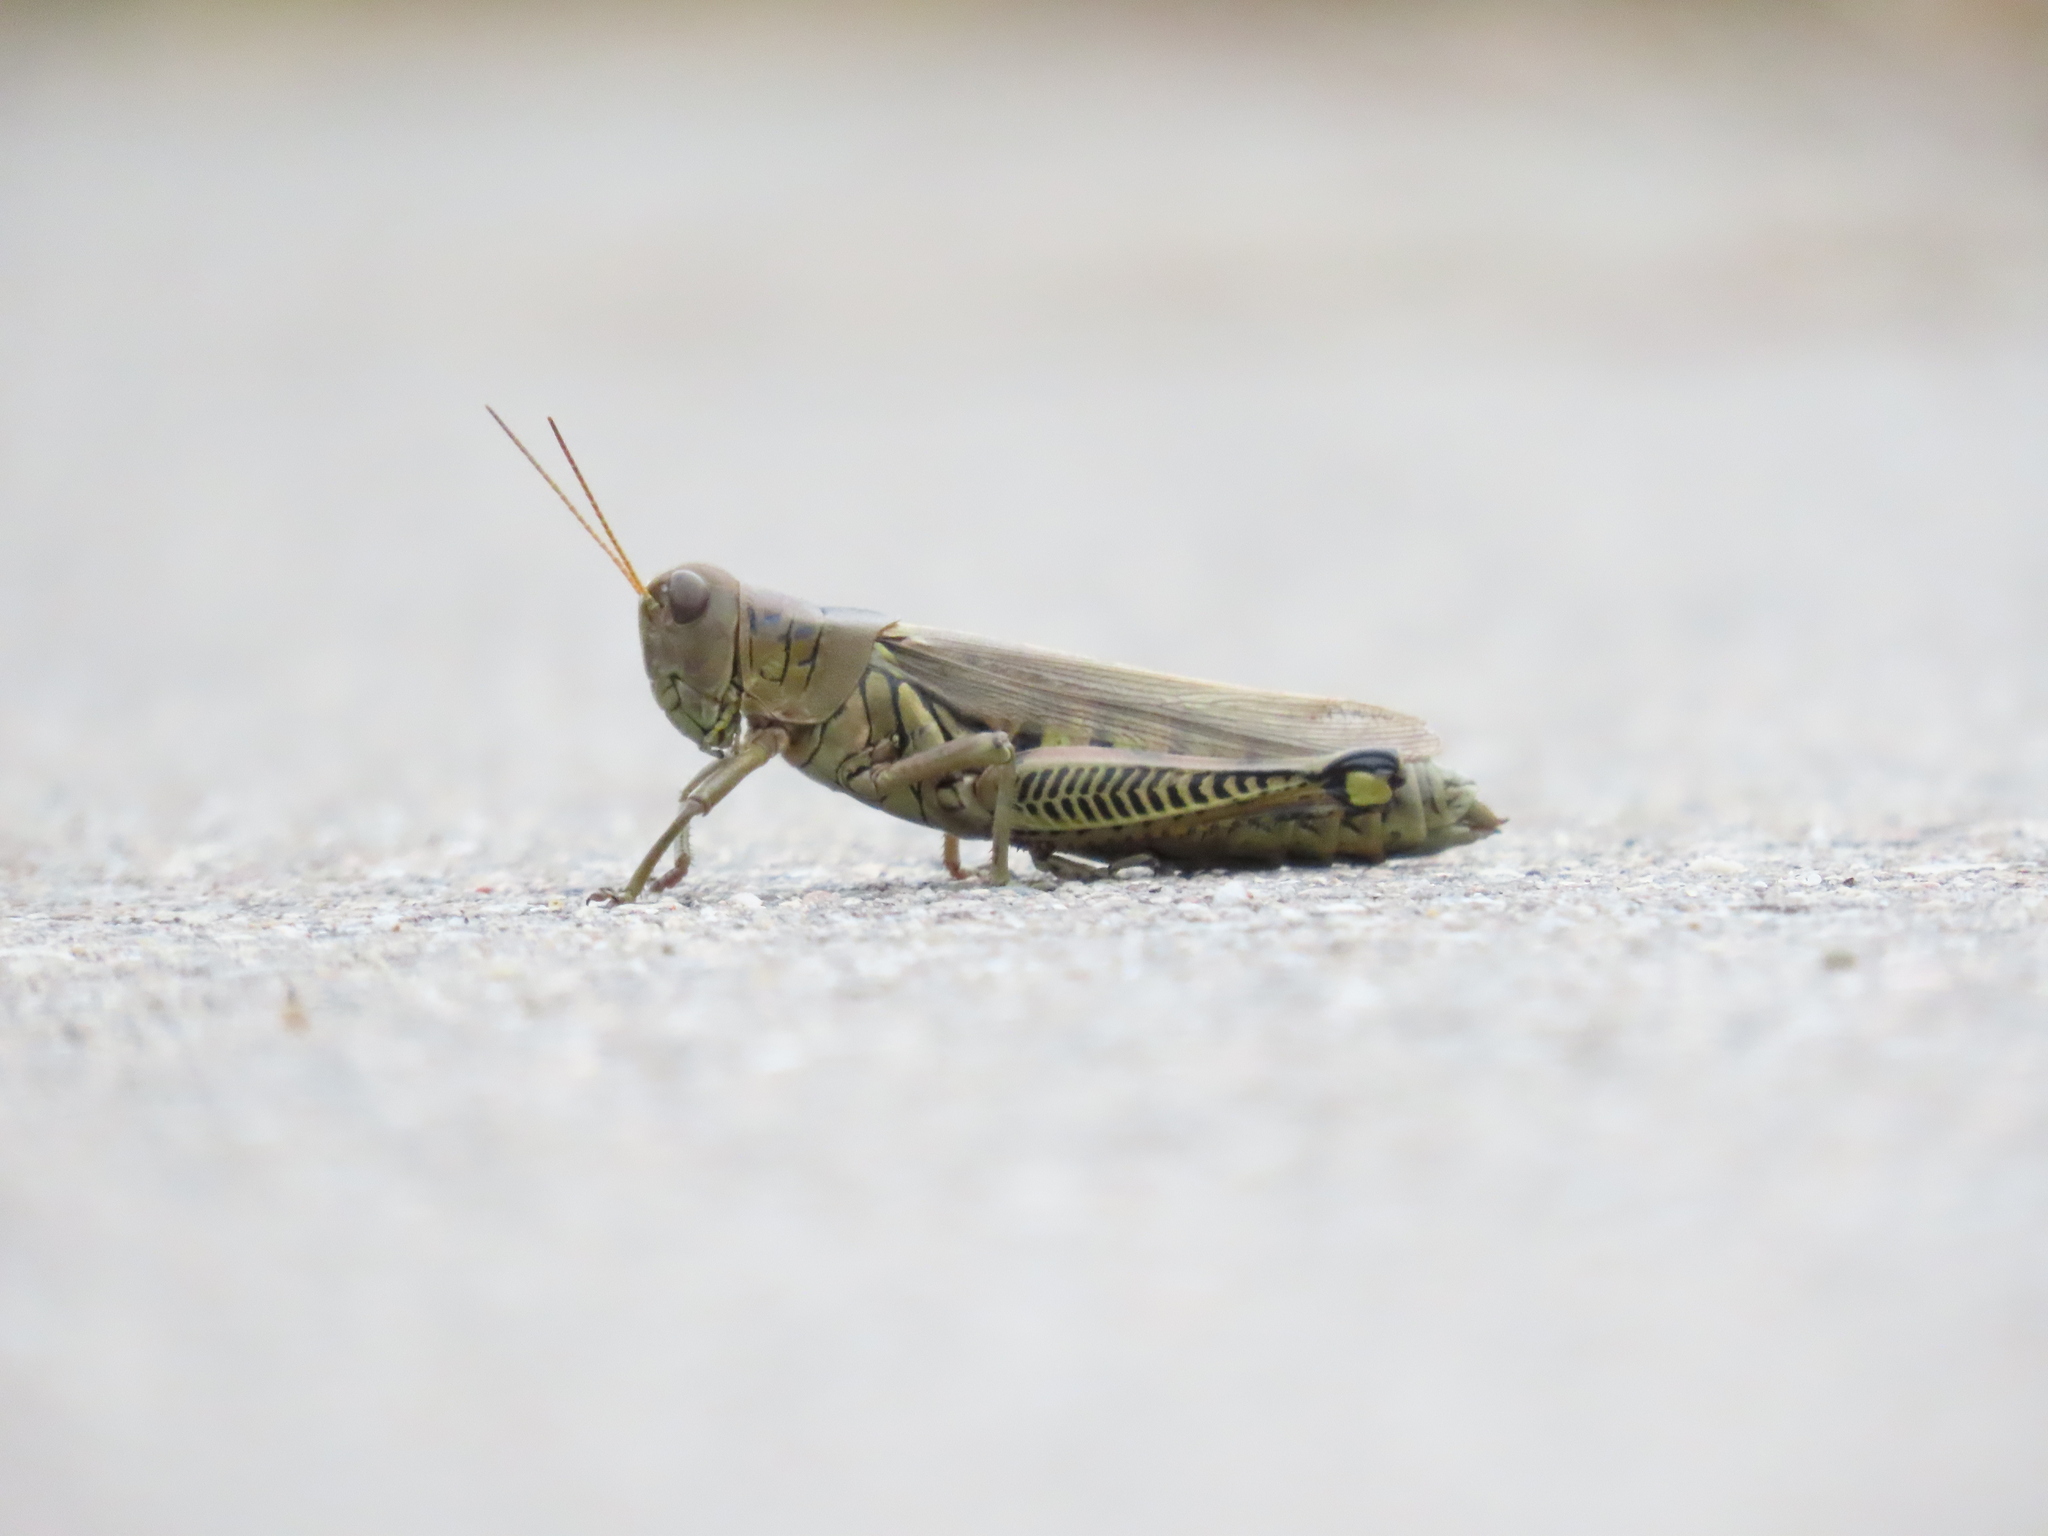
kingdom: Animalia
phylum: Arthropoda
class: Insecta
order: Orthoptera
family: Acrididae
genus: Melanoplus
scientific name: Melanoplus differentialis
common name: Differential grasshopper
